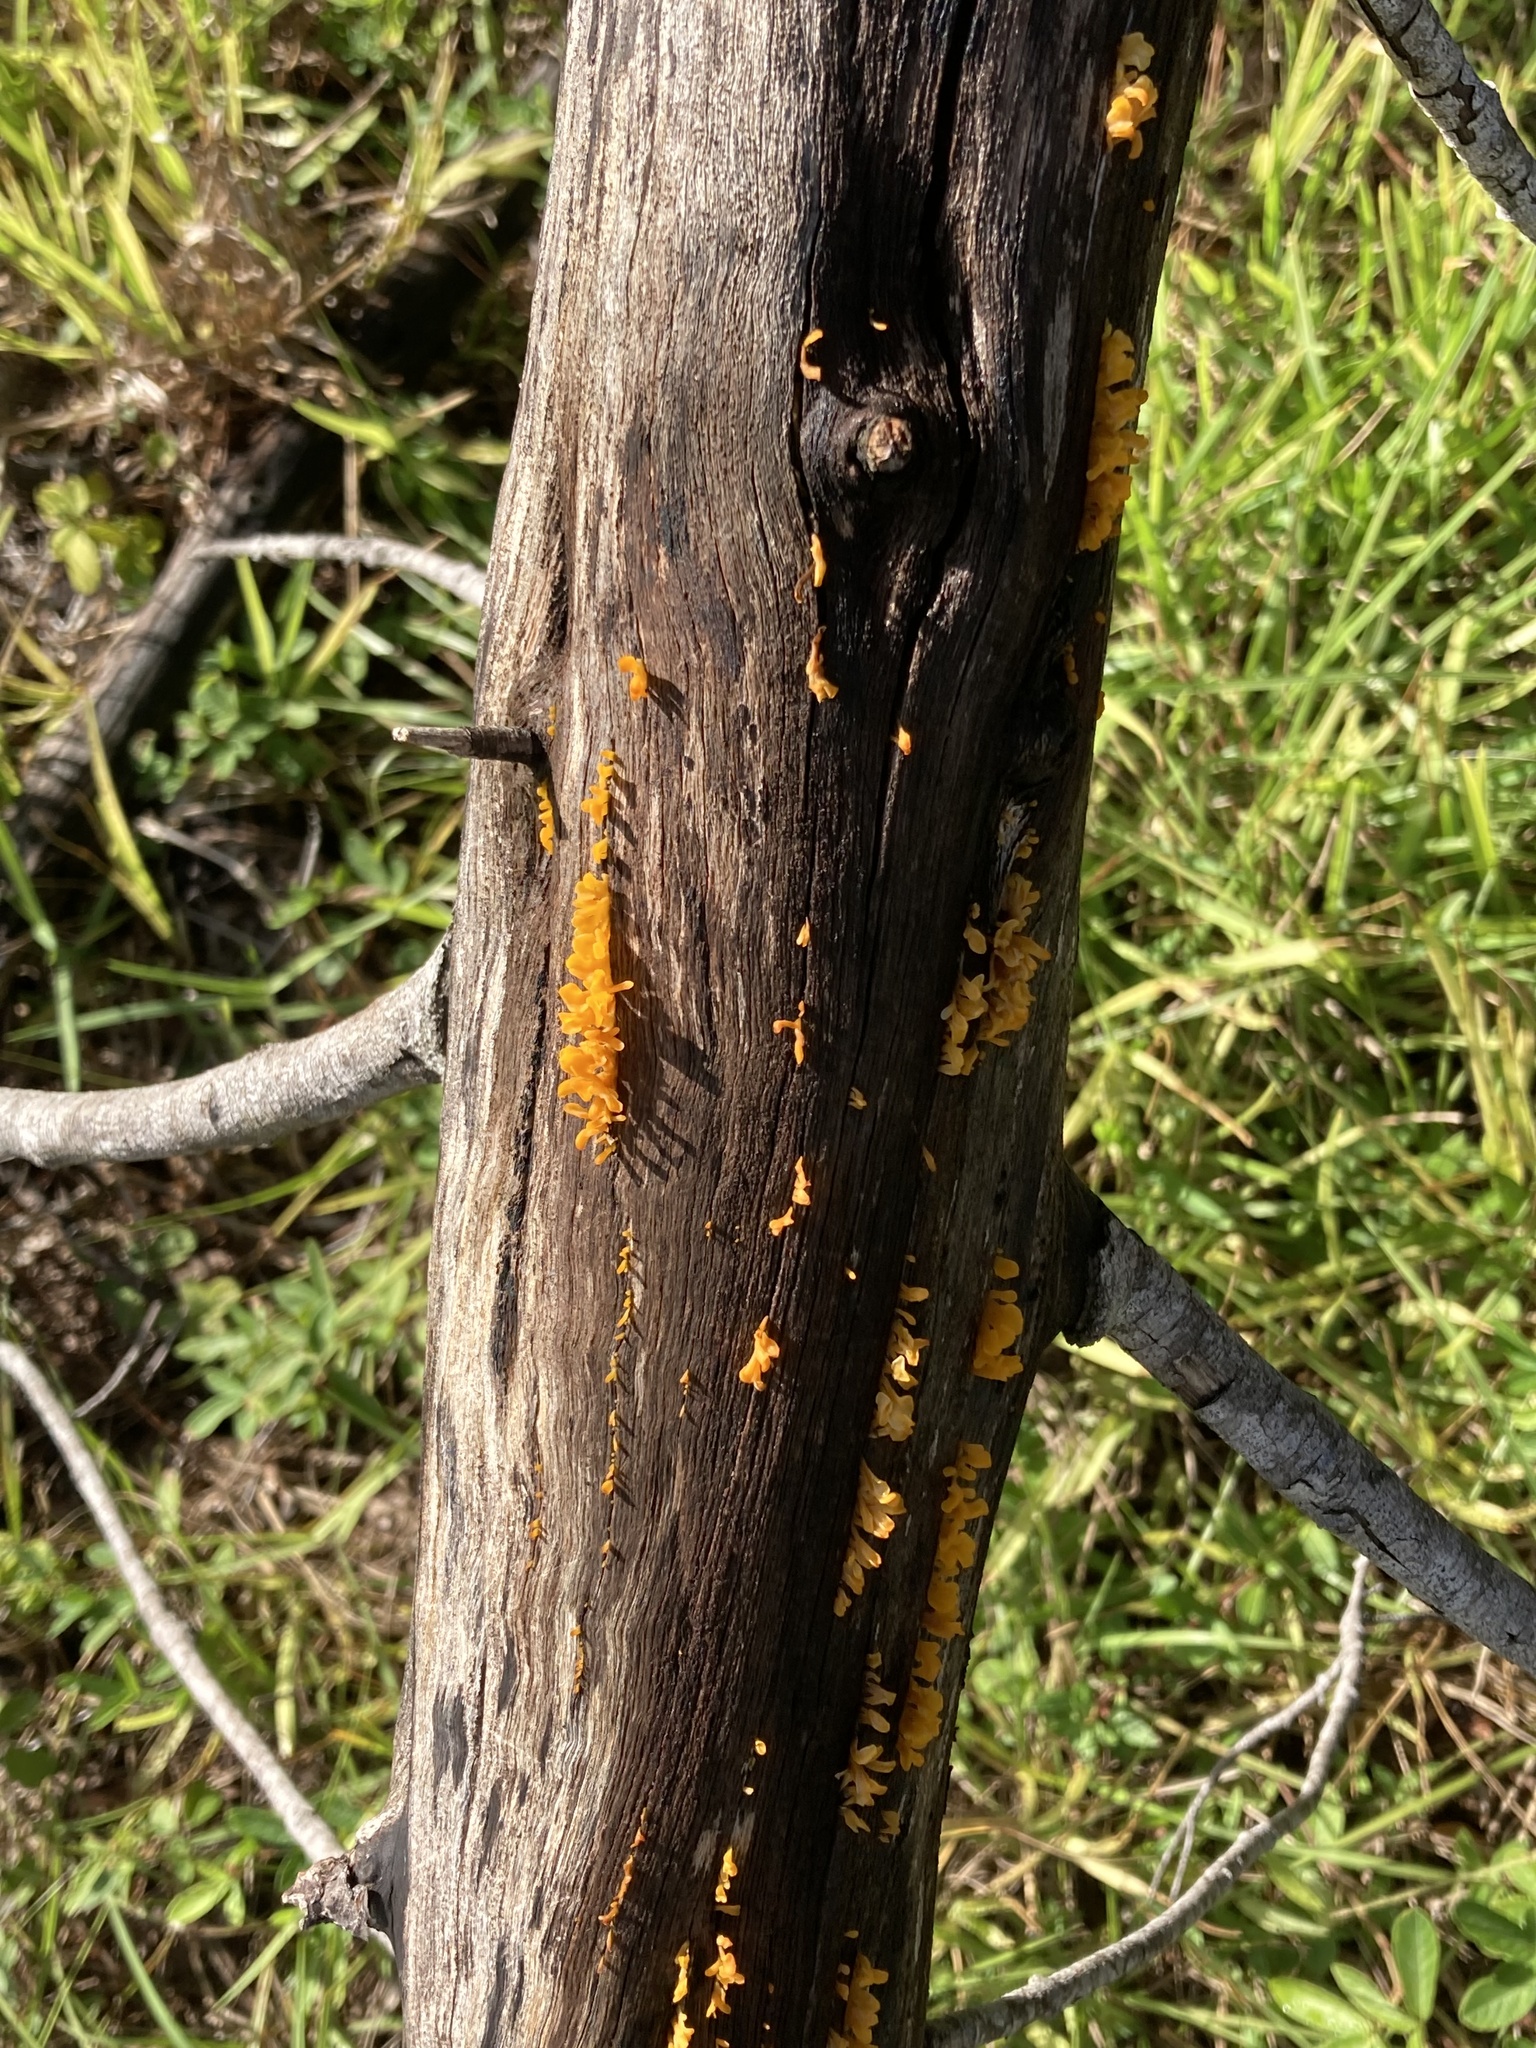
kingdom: Fungi
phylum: Basidiomycota
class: Dacrymycetes
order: Dacrymycetales
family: Dacrymycetaceae
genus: Dacrymyces
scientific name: Dacrymyces spathularius
